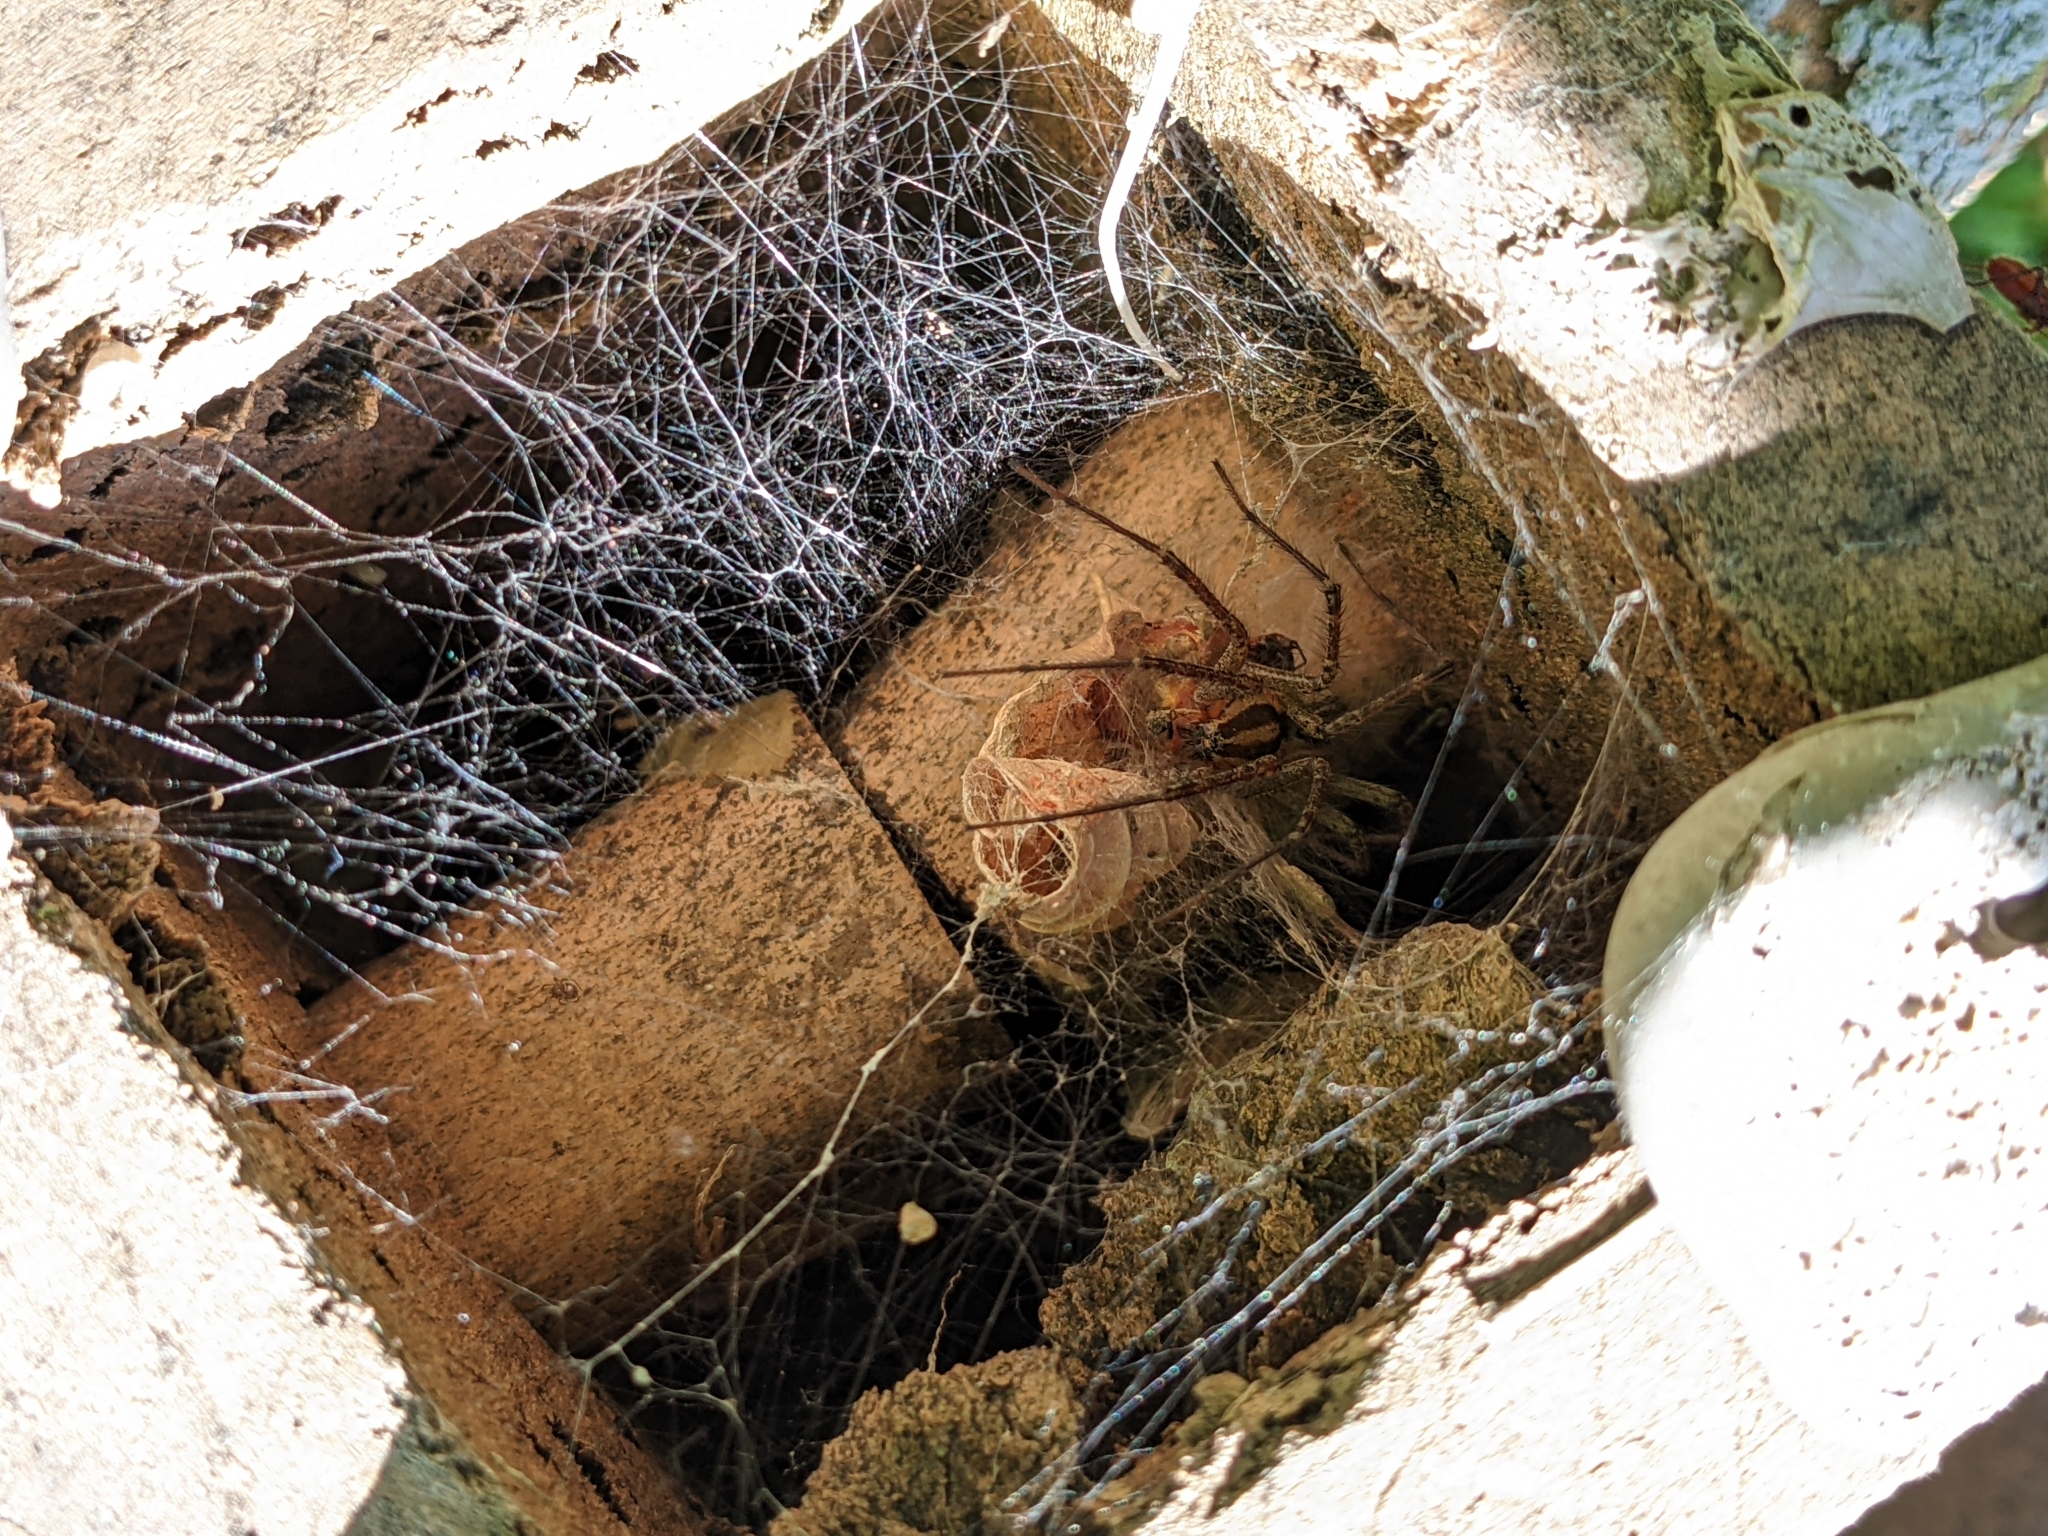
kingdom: Animalia
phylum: Arthropoda
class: Arachnida
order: Araneae
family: Agelenidae
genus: Agelenopsis
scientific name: Agelenopsis
